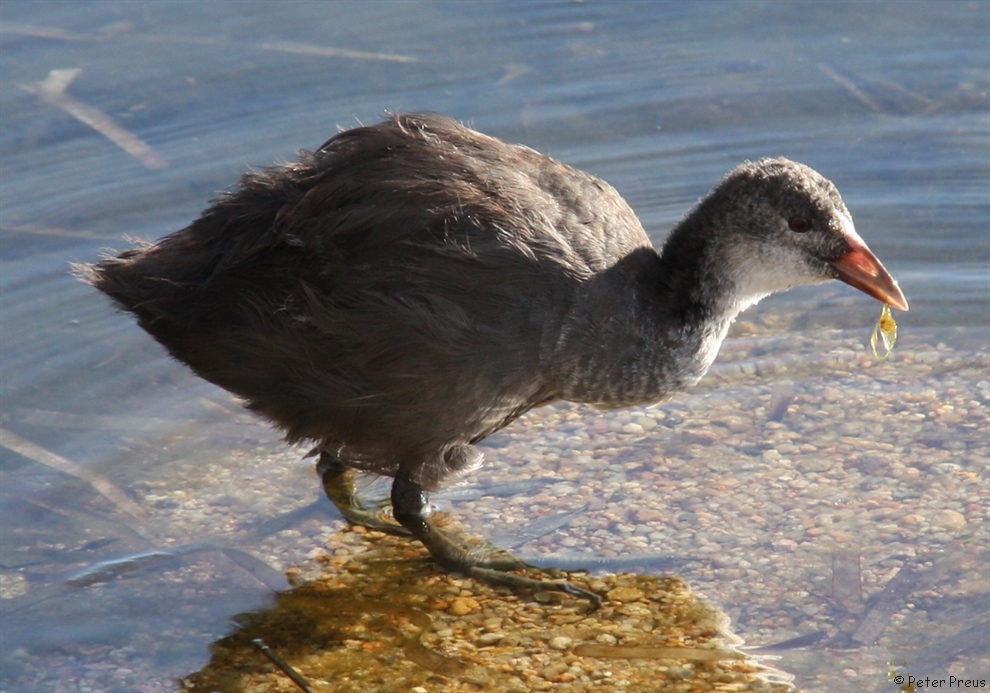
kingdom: Animalia
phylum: Chordata
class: Aves
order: Gruiformes
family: Rallidae
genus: Fulica
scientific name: Fulica atra
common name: Eurasian coot
